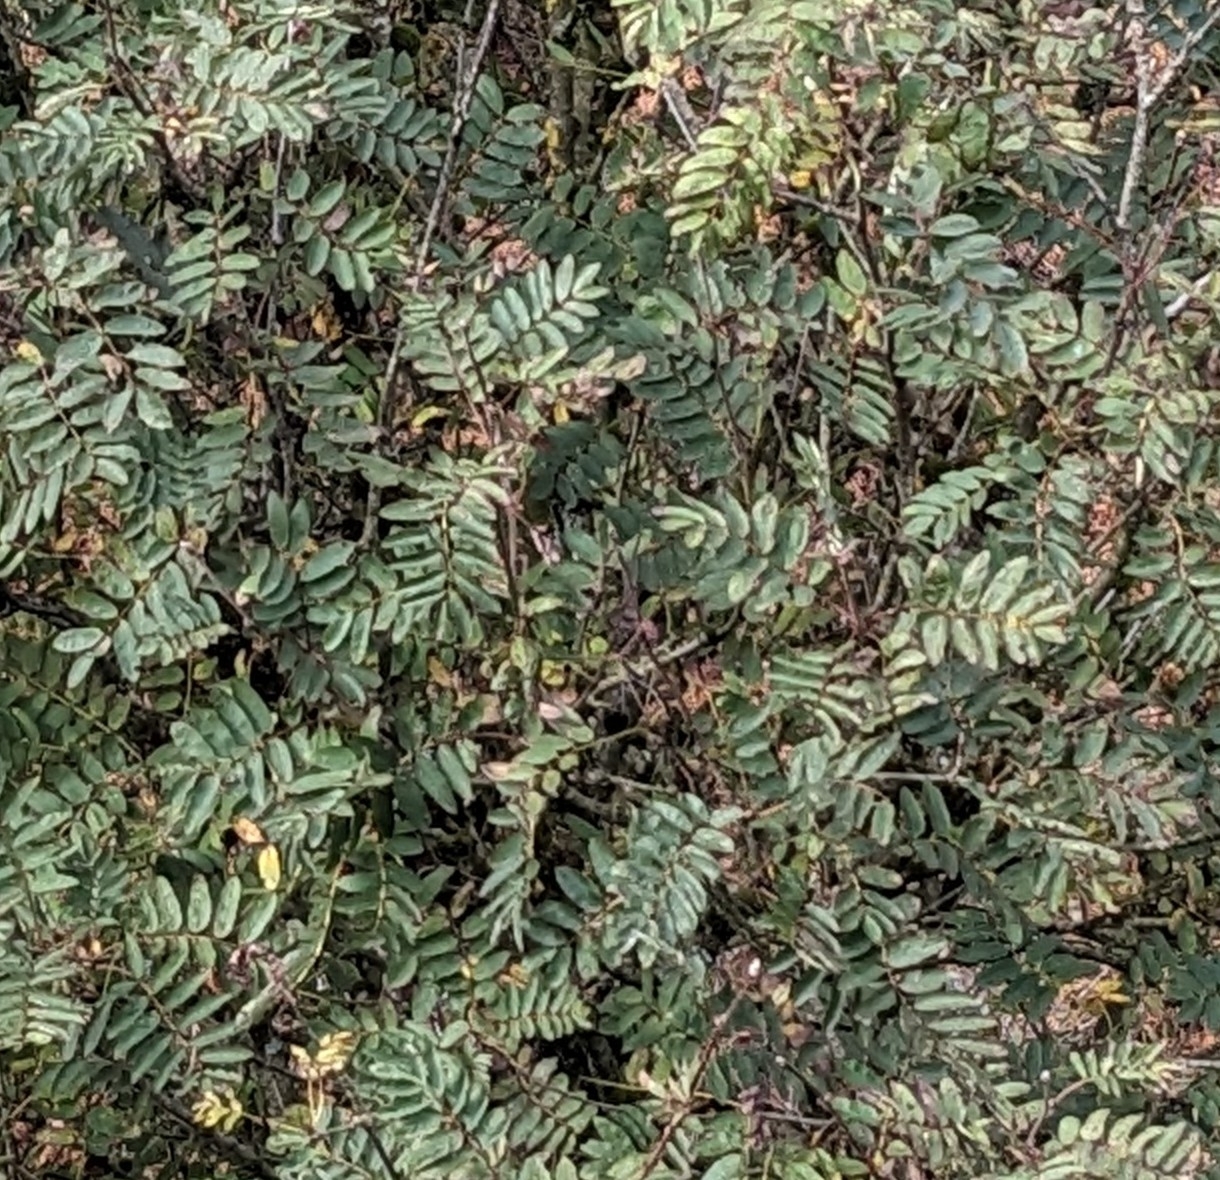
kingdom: Plantae
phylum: Tracheophyta
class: Magnoliopsida
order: Rosales
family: Rosaceae
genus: Sorbus
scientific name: Sorbus aucuparia
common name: Rowan
